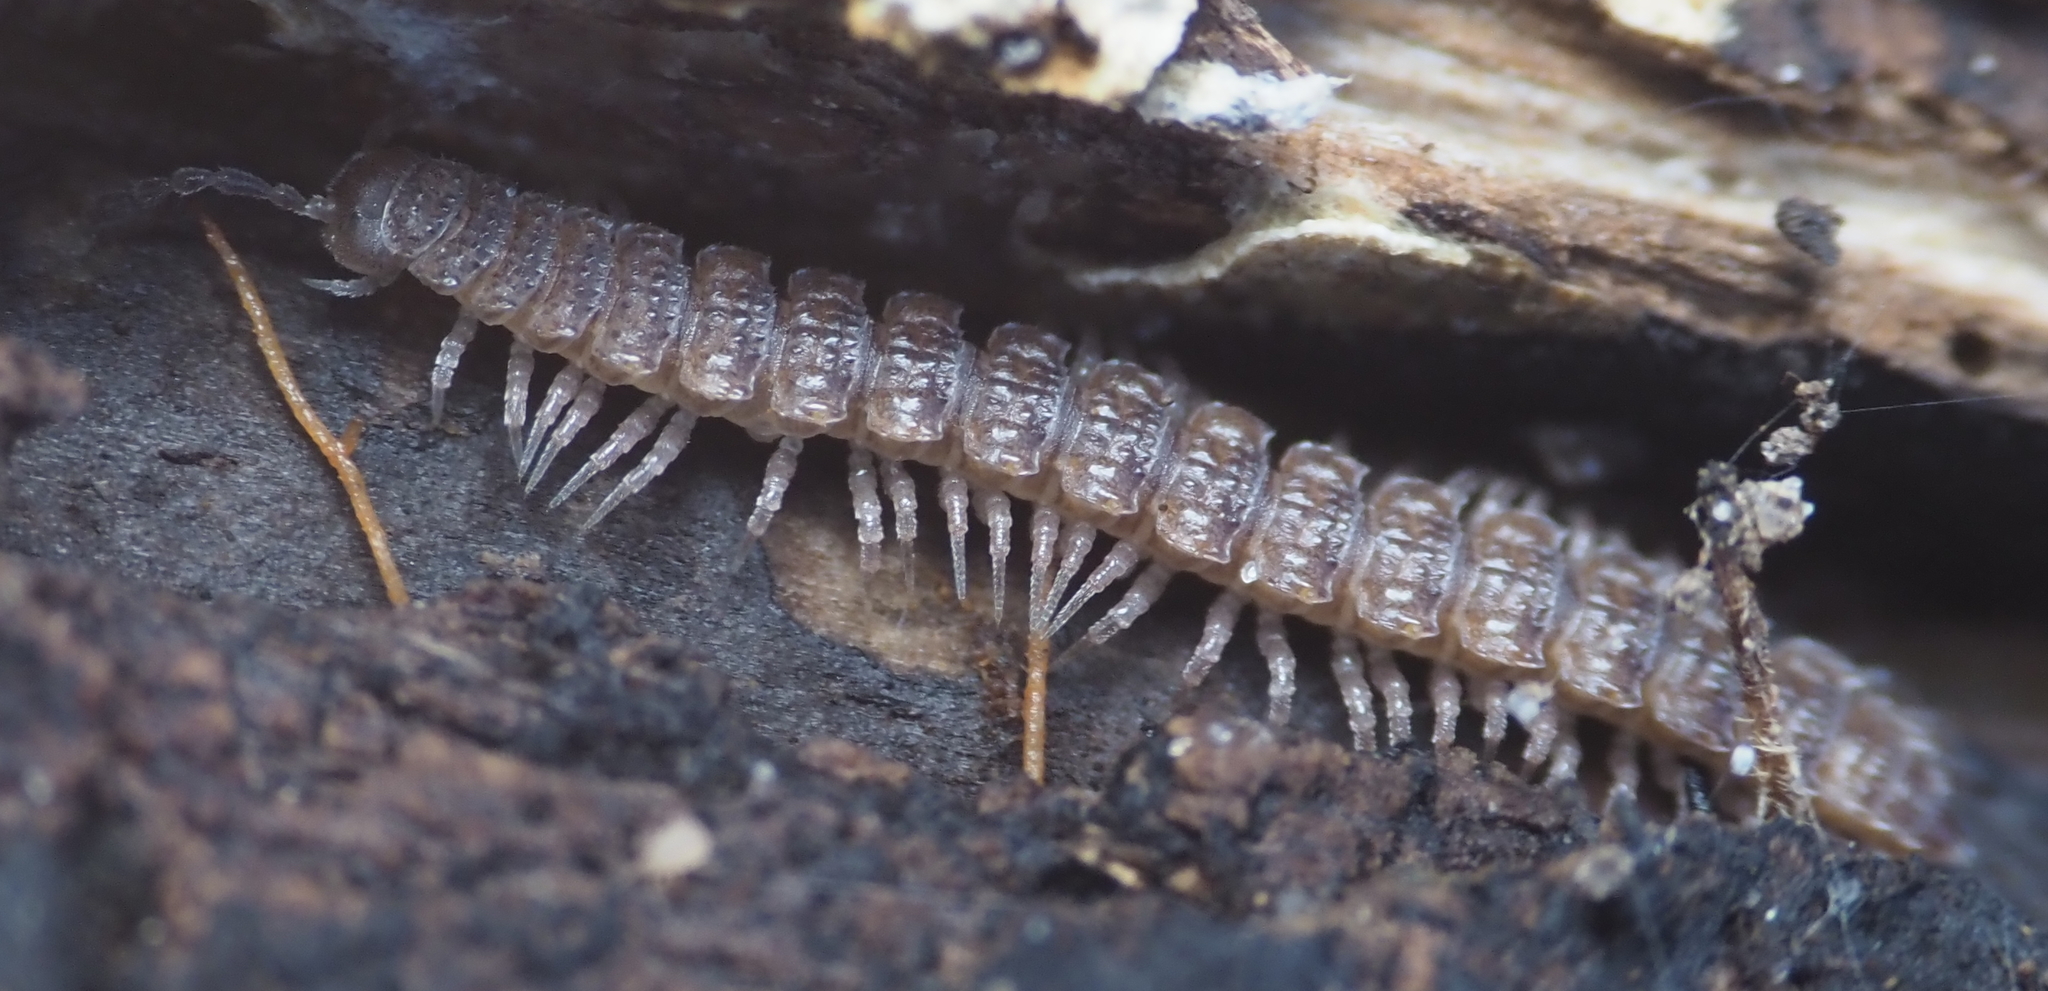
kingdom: Animalia
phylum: Arthropoda
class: Diplopoda
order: Polydesmida
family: Polydesmidae
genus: Polydesmus
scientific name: Polydesmus
